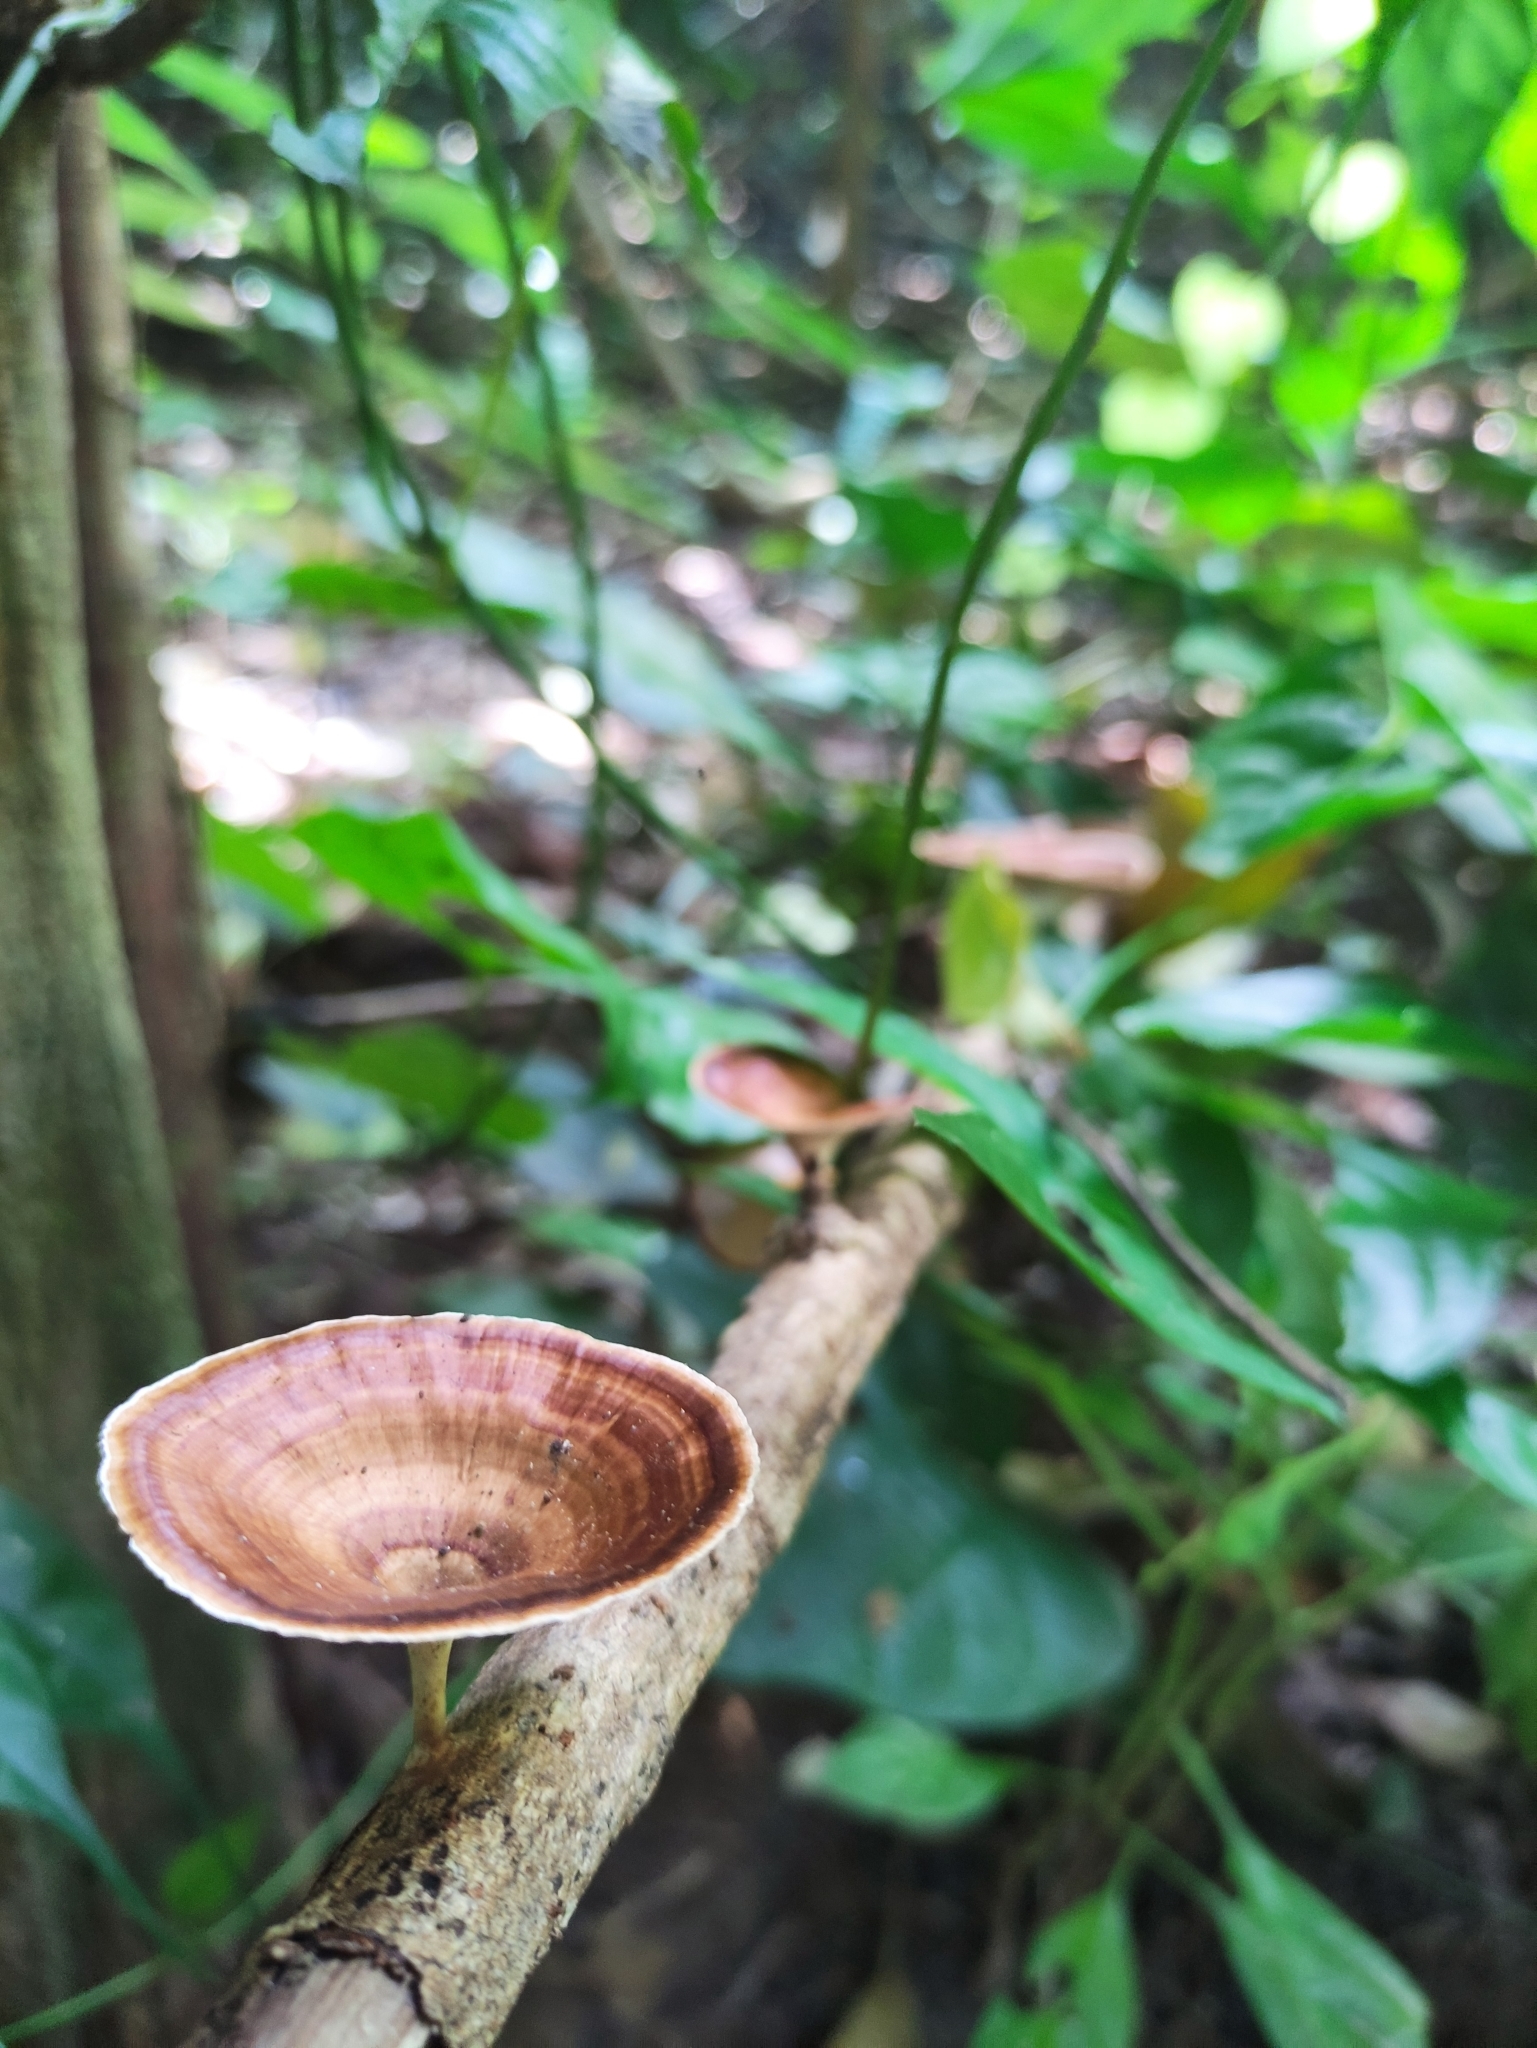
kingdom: Fungi
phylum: Basidiomycota
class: Agaricomycetes
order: Polyporales
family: Polyporaceae
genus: Microporus
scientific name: Microporus xanthopus
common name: Yellow-stemmed micropore
